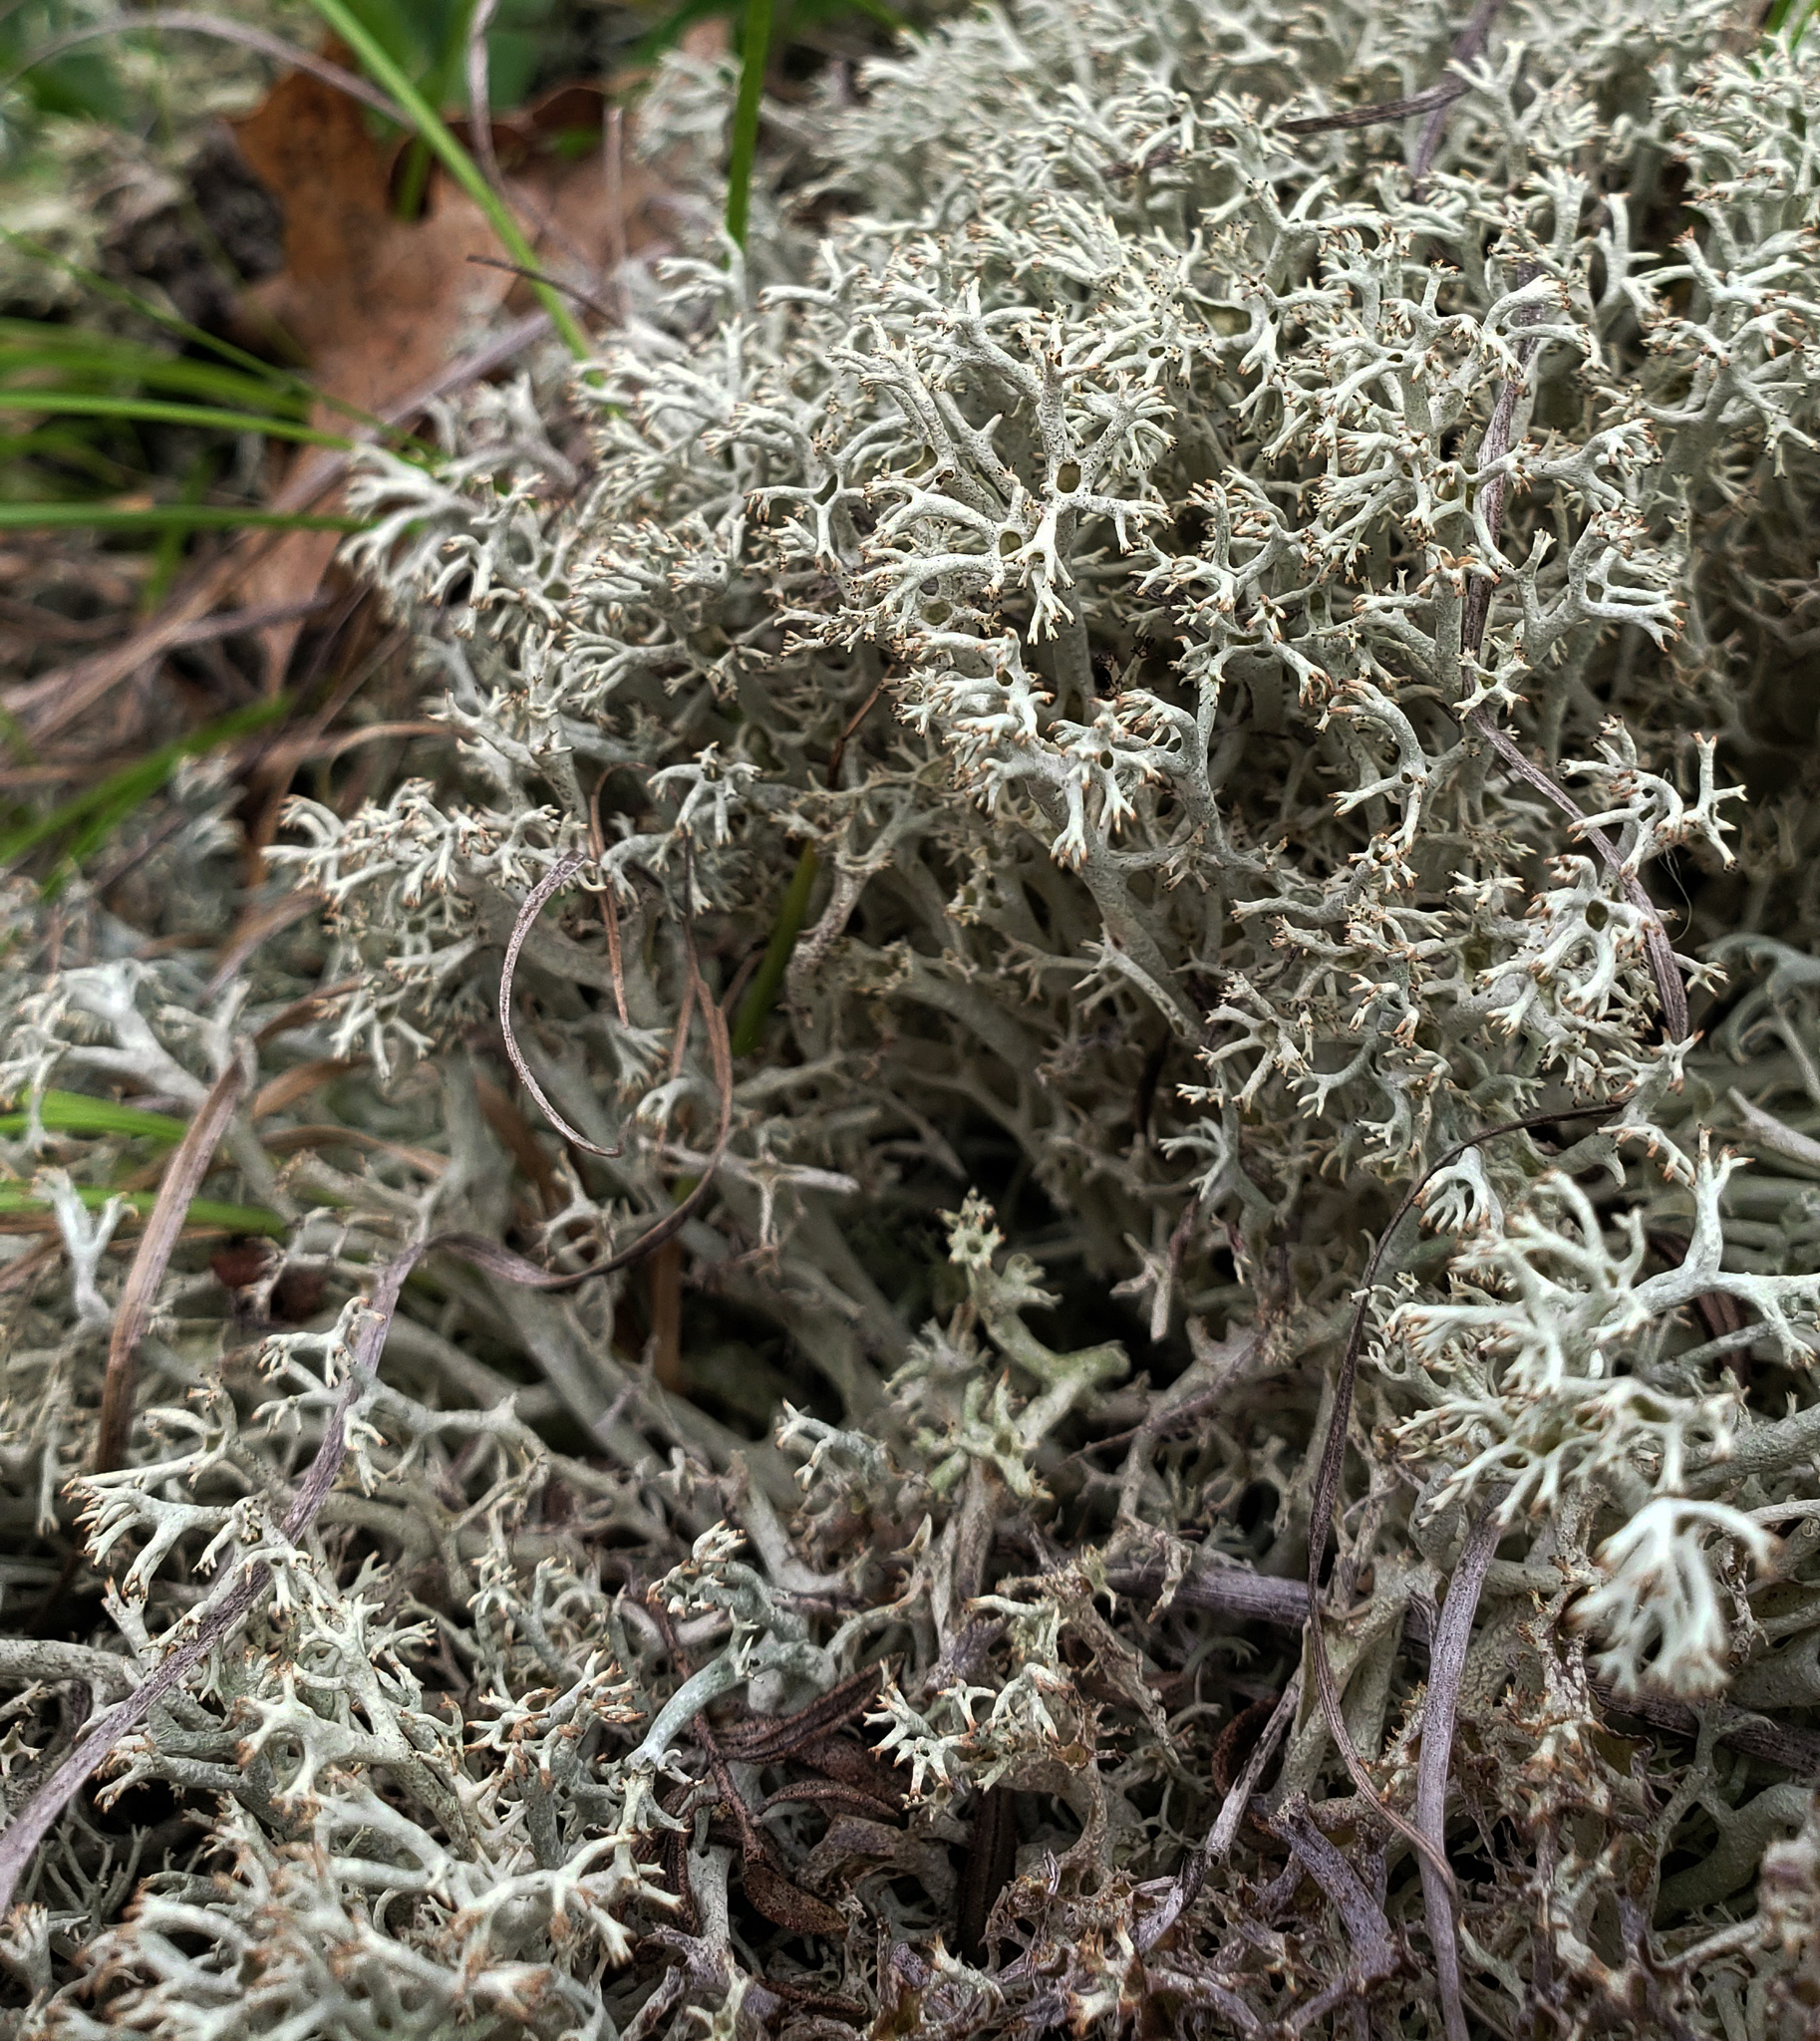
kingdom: Fungi
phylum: Ascomycota
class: Lecanoromycetes
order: Lecanorales
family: Cladoniaceae
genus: Cladonia
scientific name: Cladonia rangiferina
